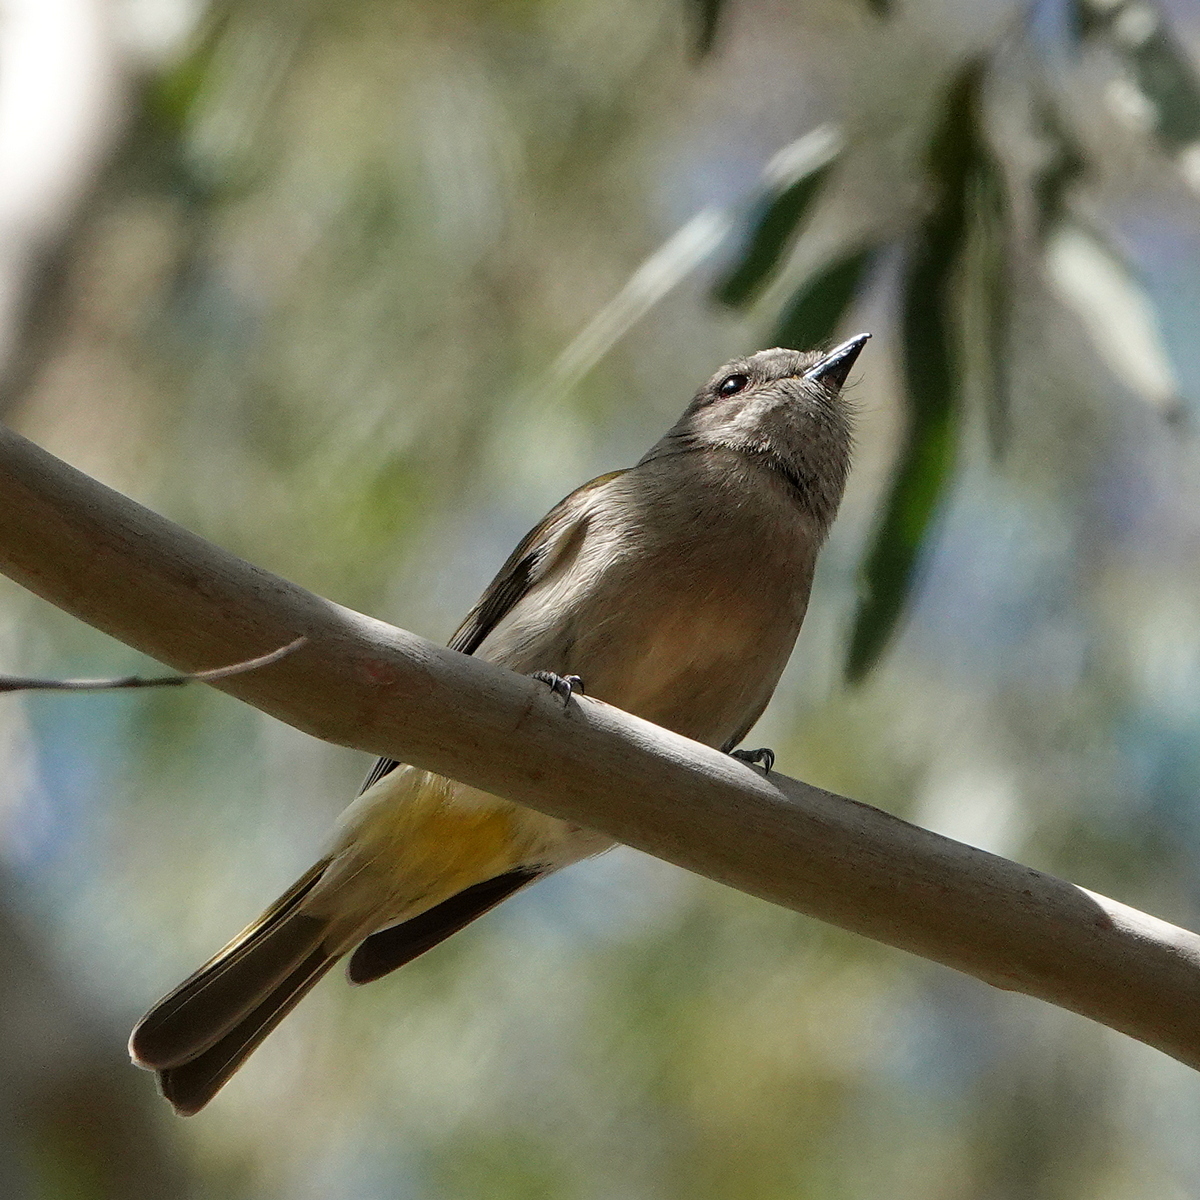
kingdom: Animalia
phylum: Chordata
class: Aves
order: Passeriformes
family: Pachycephalidae
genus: Pachycephala
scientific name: Pachycephala pectoralis
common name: Australian golden whistler
